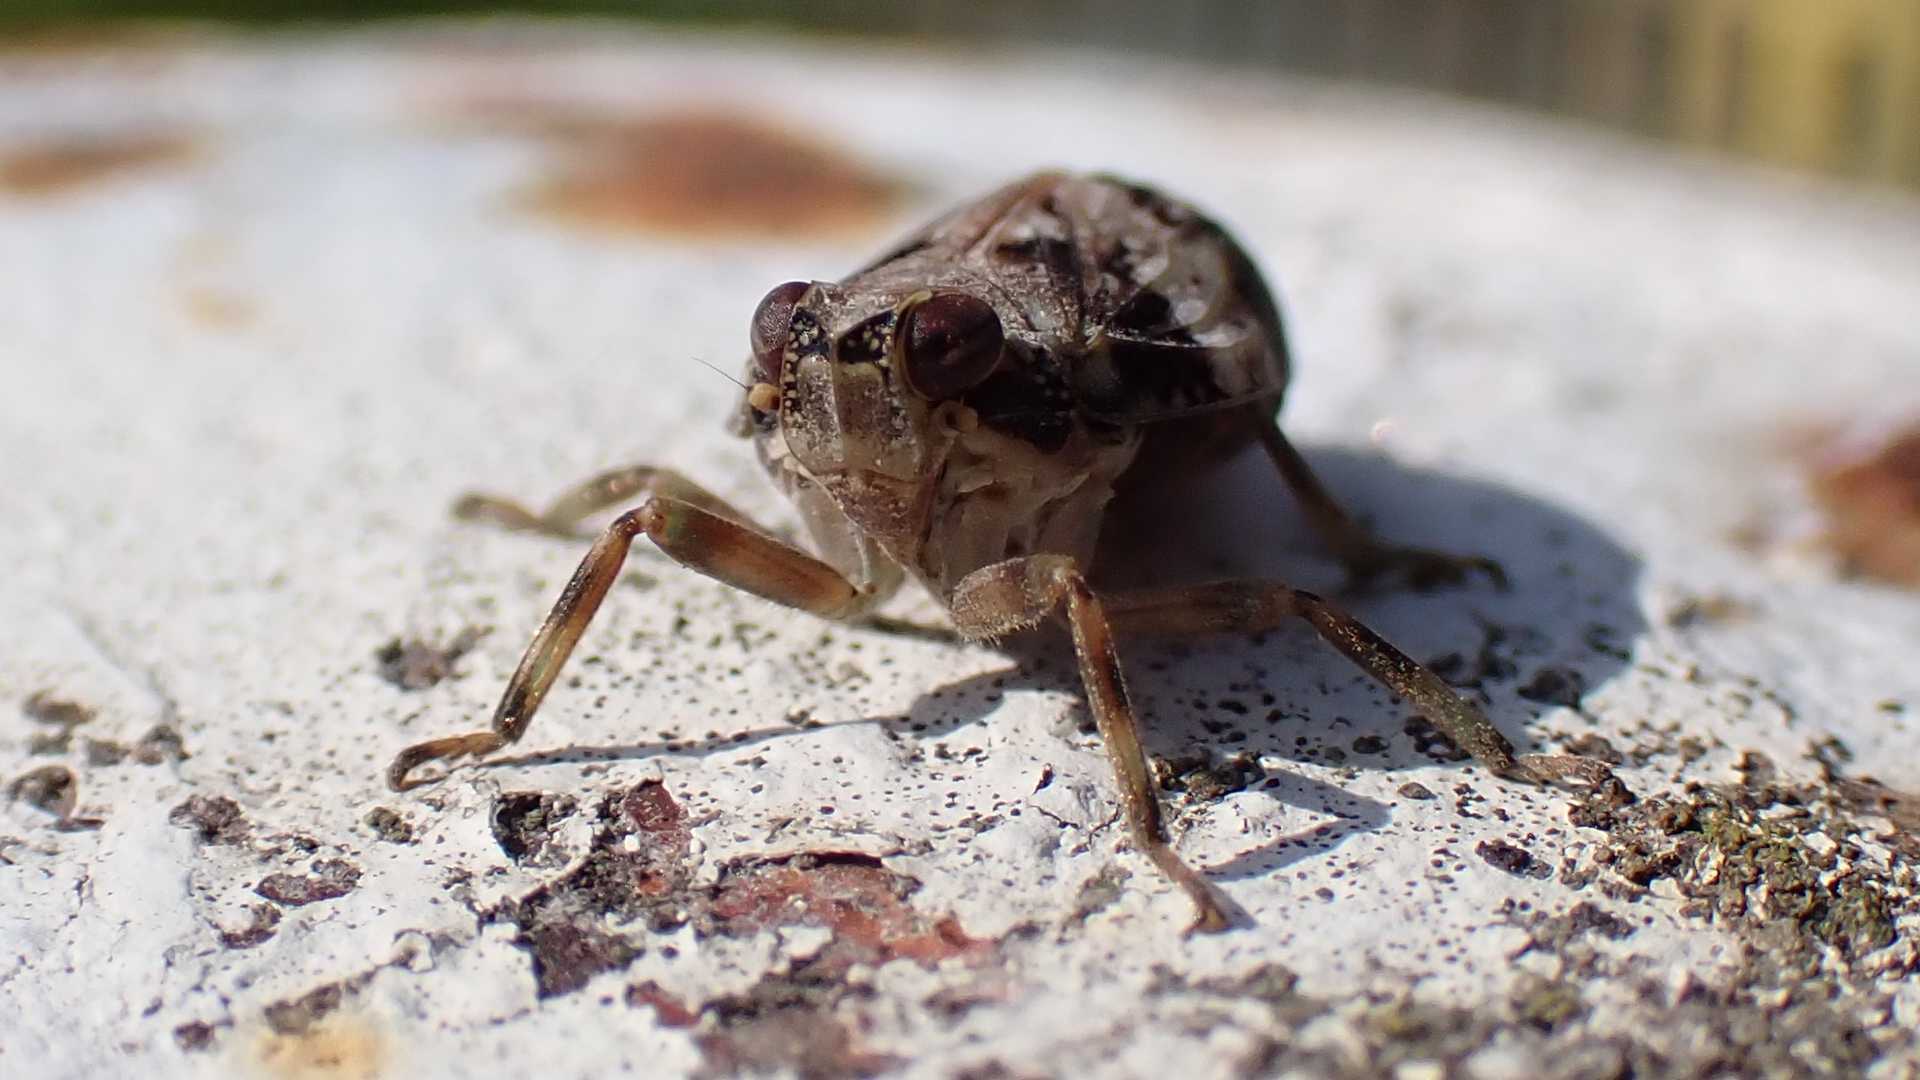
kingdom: Animalia
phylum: Arthropoda
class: Insecta
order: Hemiptera
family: Issidae
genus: Issus
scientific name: Issus coleoptratus
